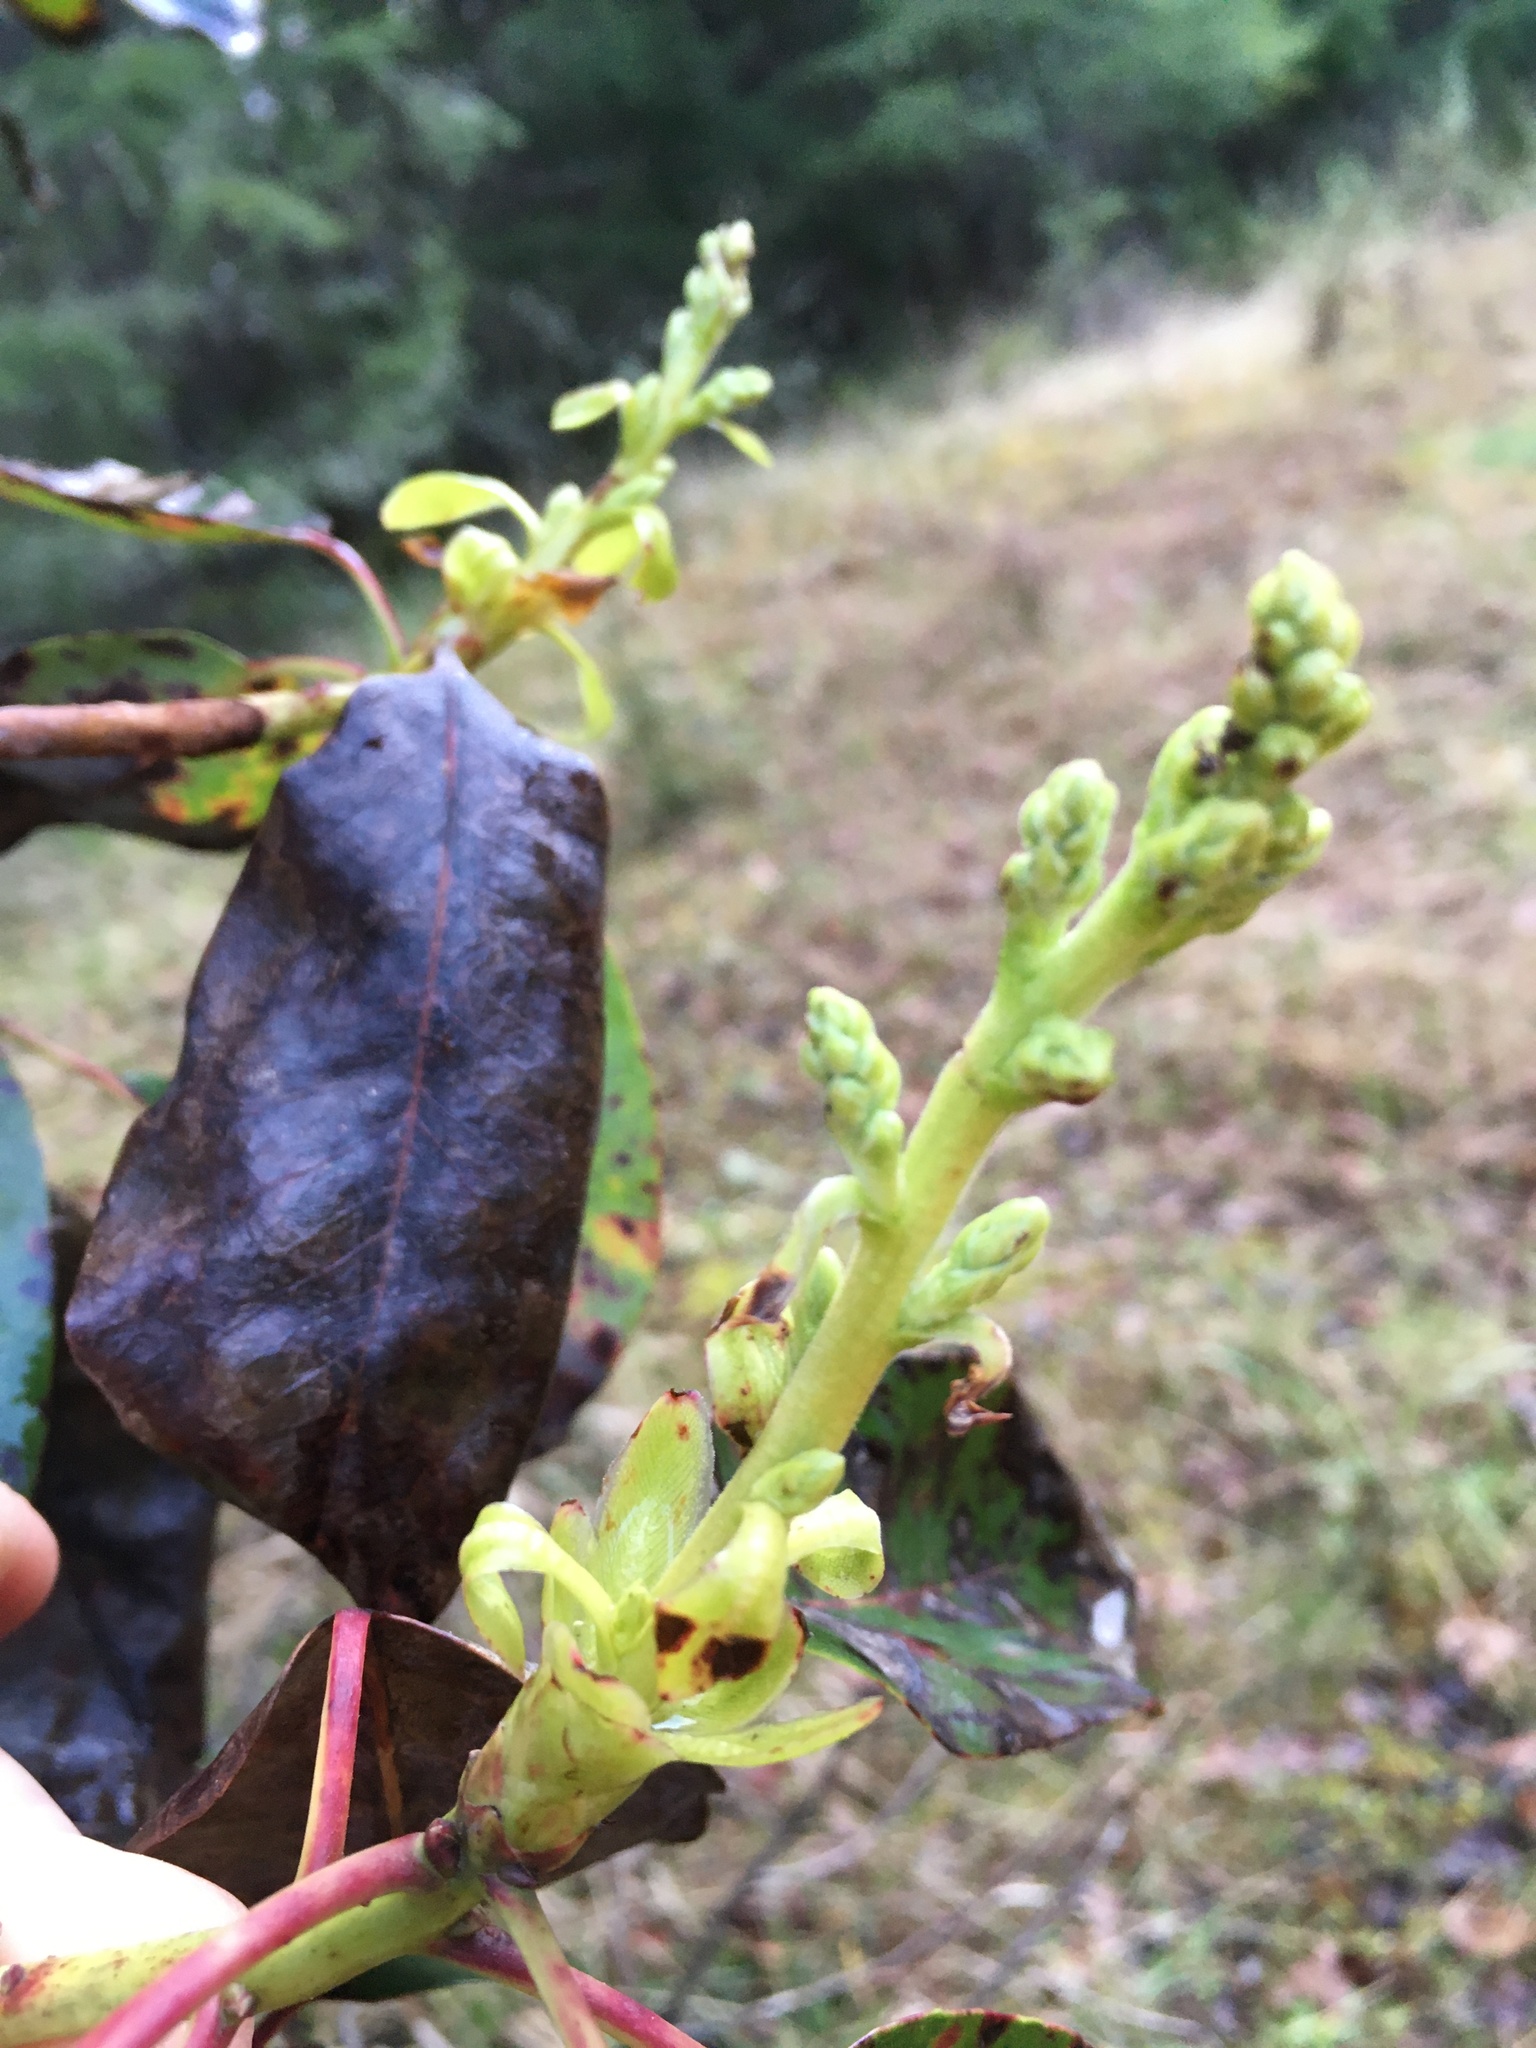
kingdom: Plantae
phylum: Tracheophyta
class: Magnoliopsida
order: Ericales
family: Ericaceae
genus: Arbutus
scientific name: Arbutus menziesii
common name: Pacific madrone
